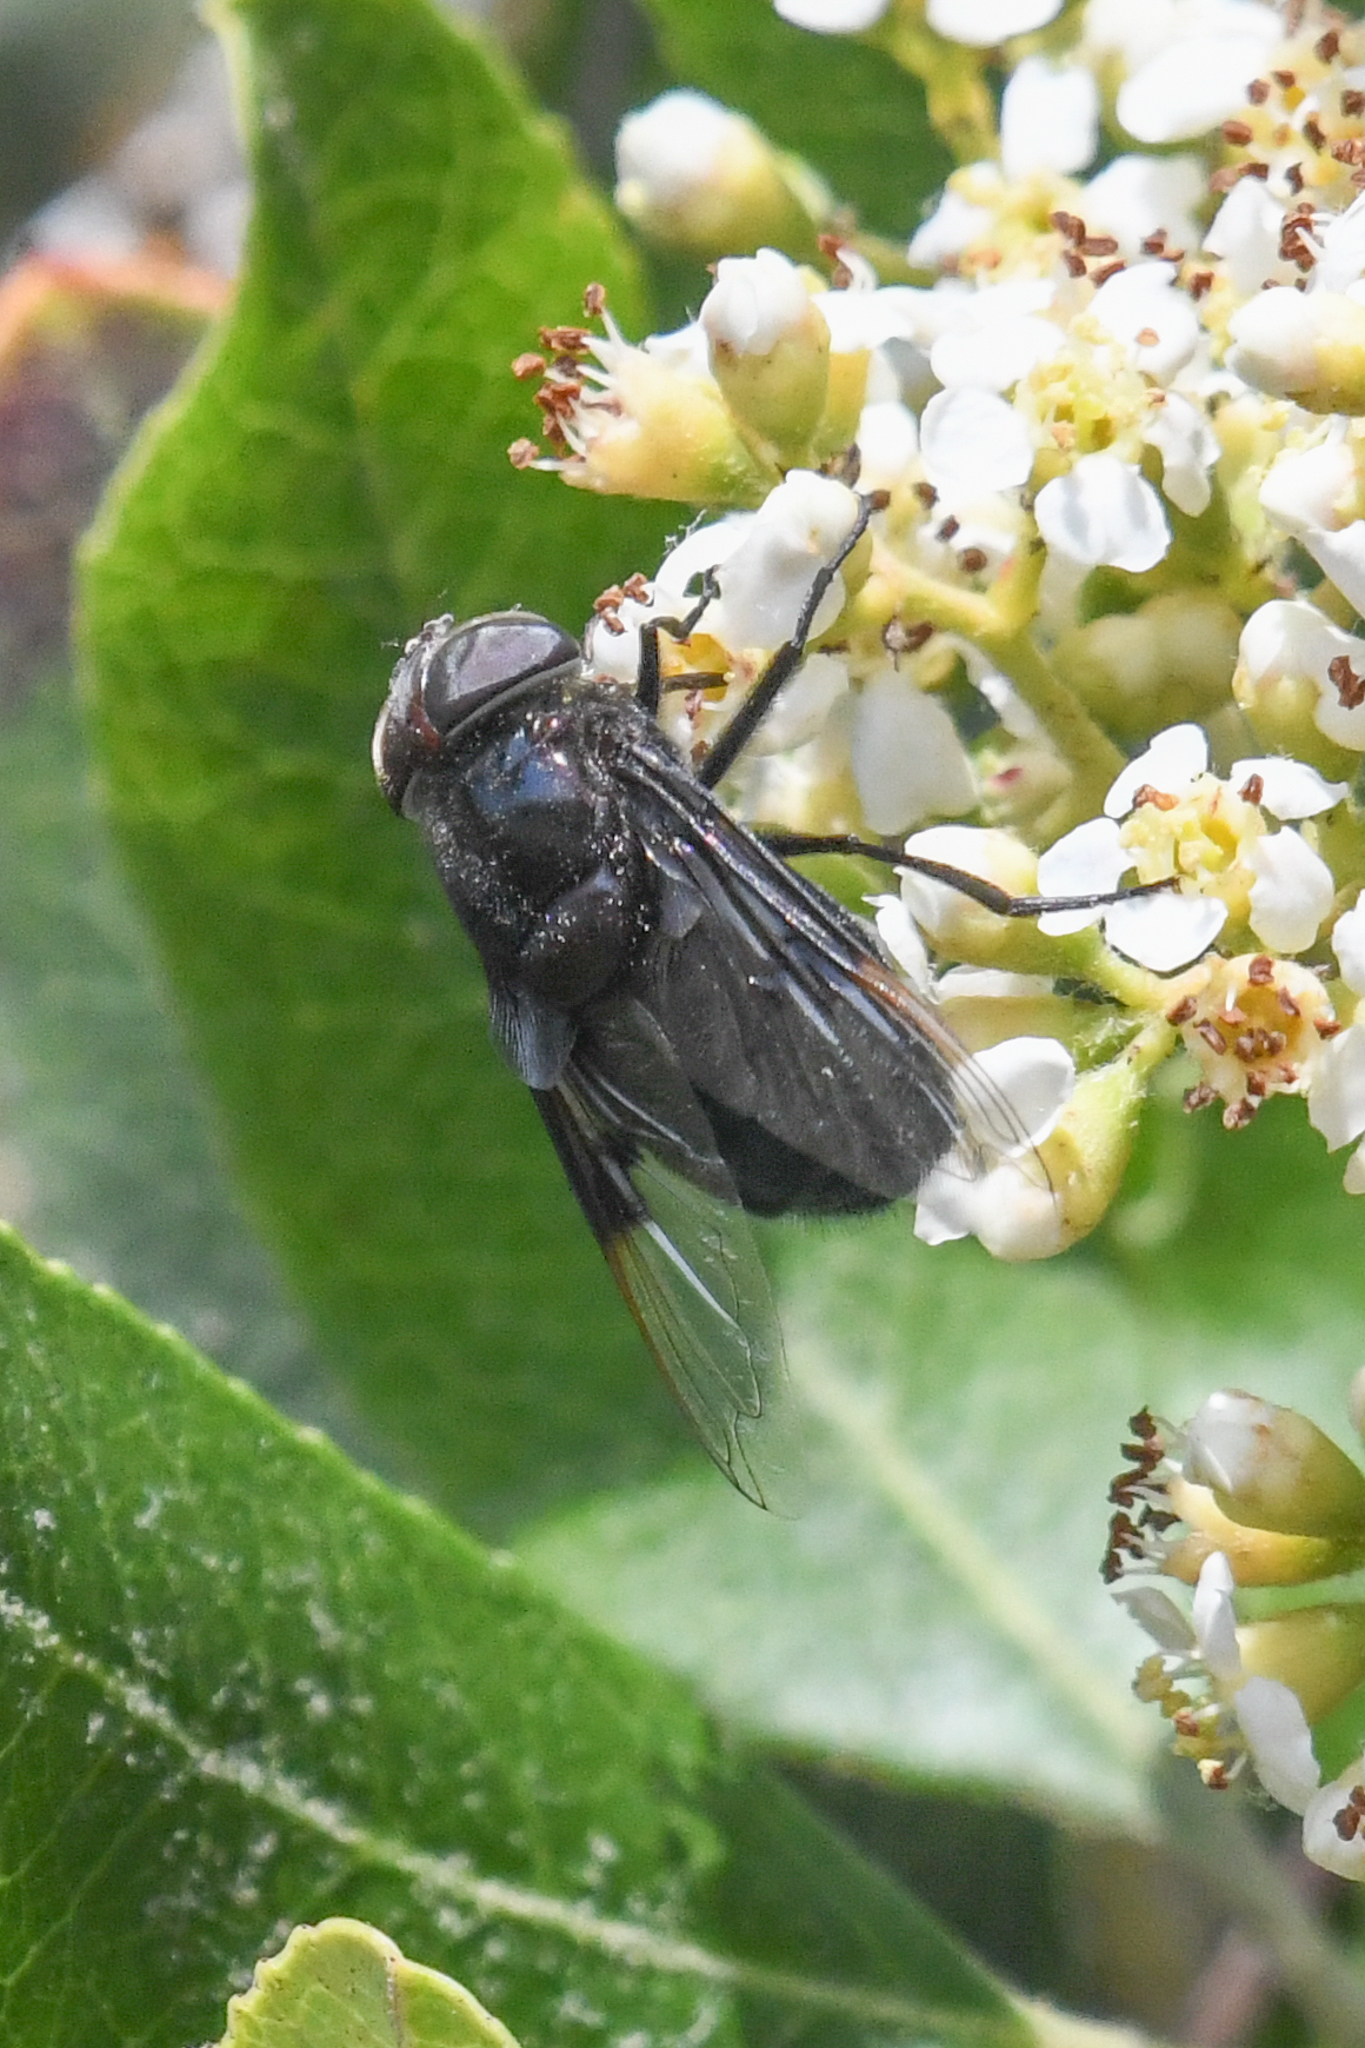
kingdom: Animalia
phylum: Arthropoda
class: Insecta
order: Diptera
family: Syrphidae
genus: Copestylum
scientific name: Copestylum mexicanum
